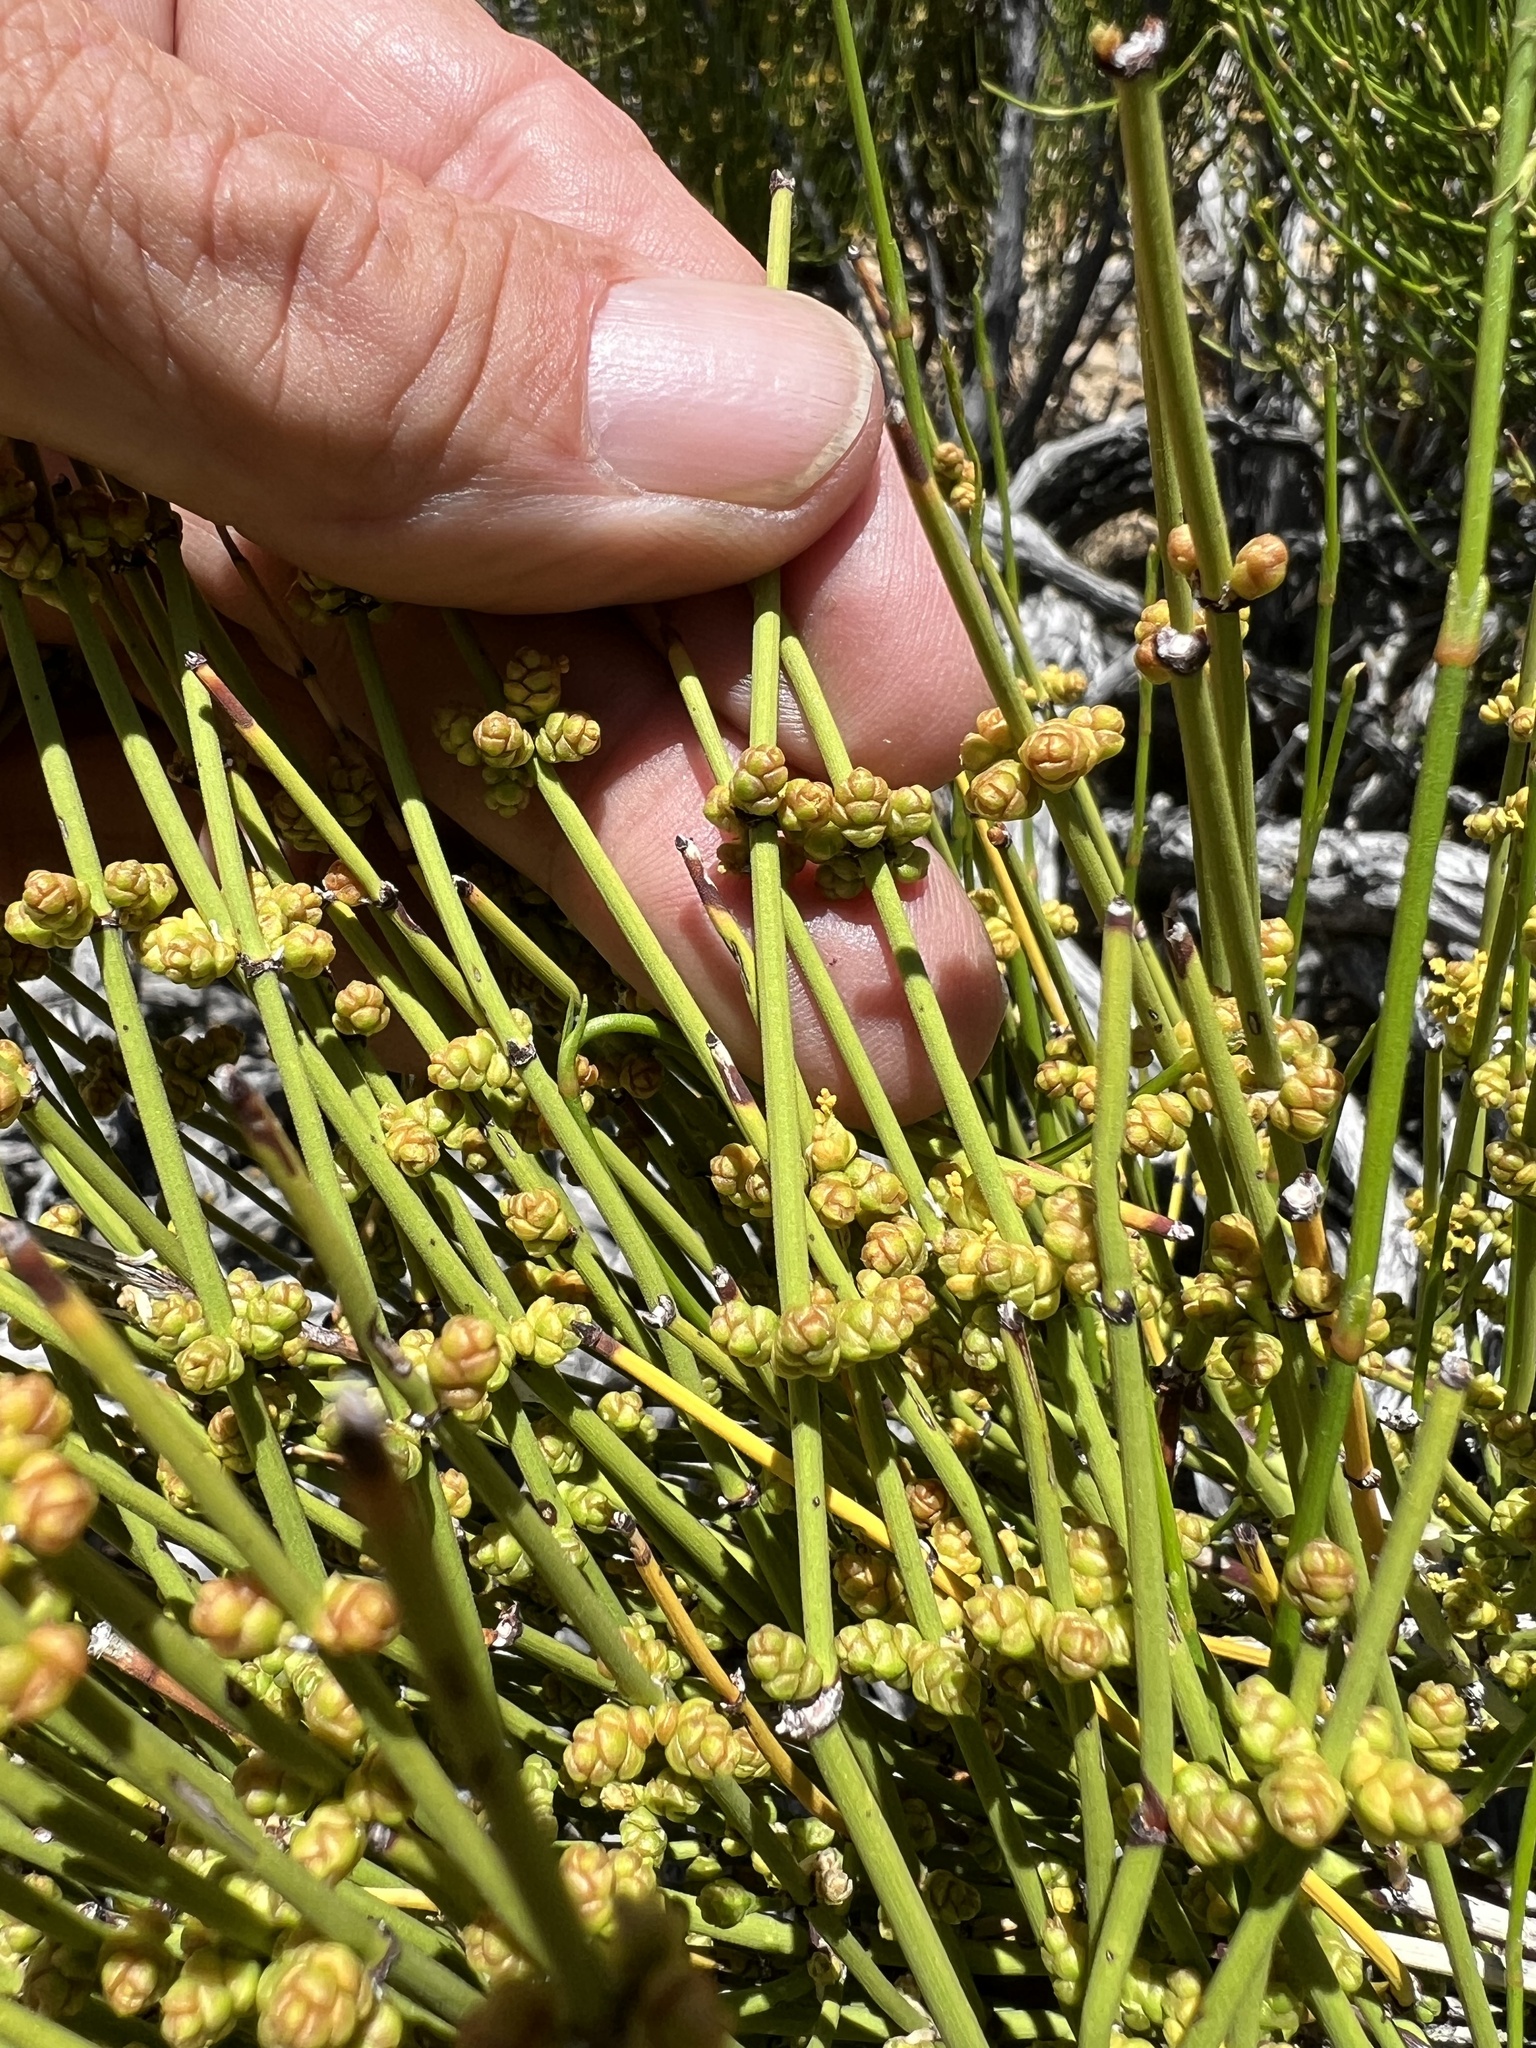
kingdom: Plantae
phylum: Tracheophyta
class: Gnetopsida
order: Ephedrales
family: Ephedraceae
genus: Ephedra
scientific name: Ephedra viridis
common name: Green ephedra
